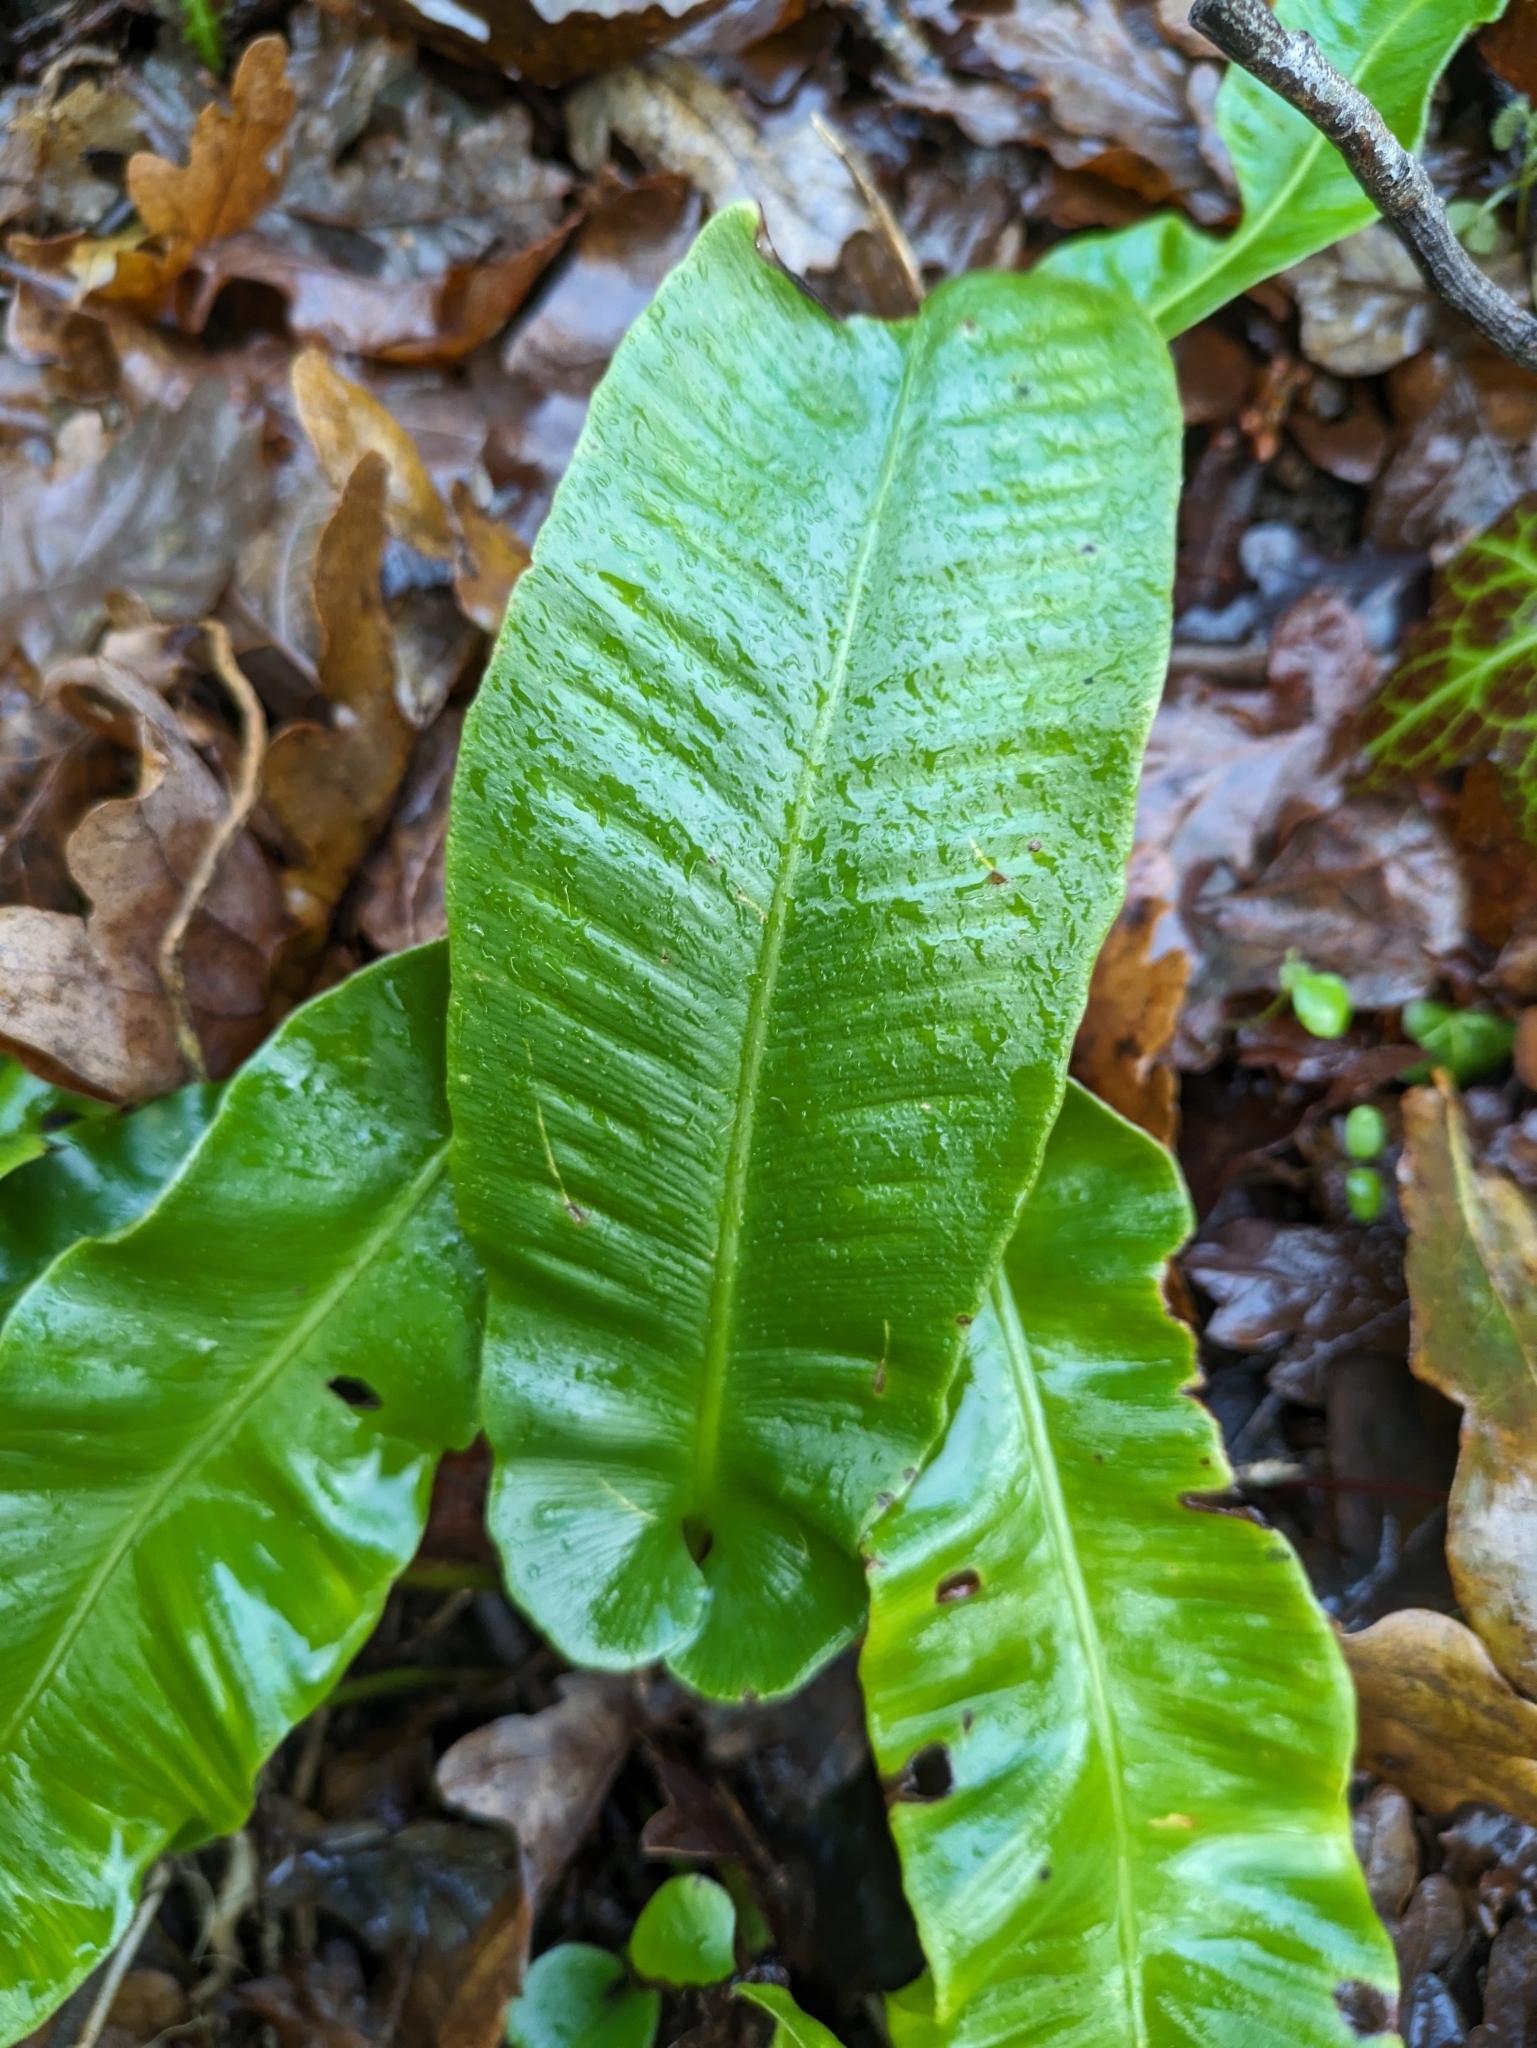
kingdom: Plantae
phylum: Tracheophyta
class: Polypodiopsida
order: Polypodiales
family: Aspleniaceae
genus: Asplenium
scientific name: Asplenium scolopendrium
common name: Hart's-tongue fern
